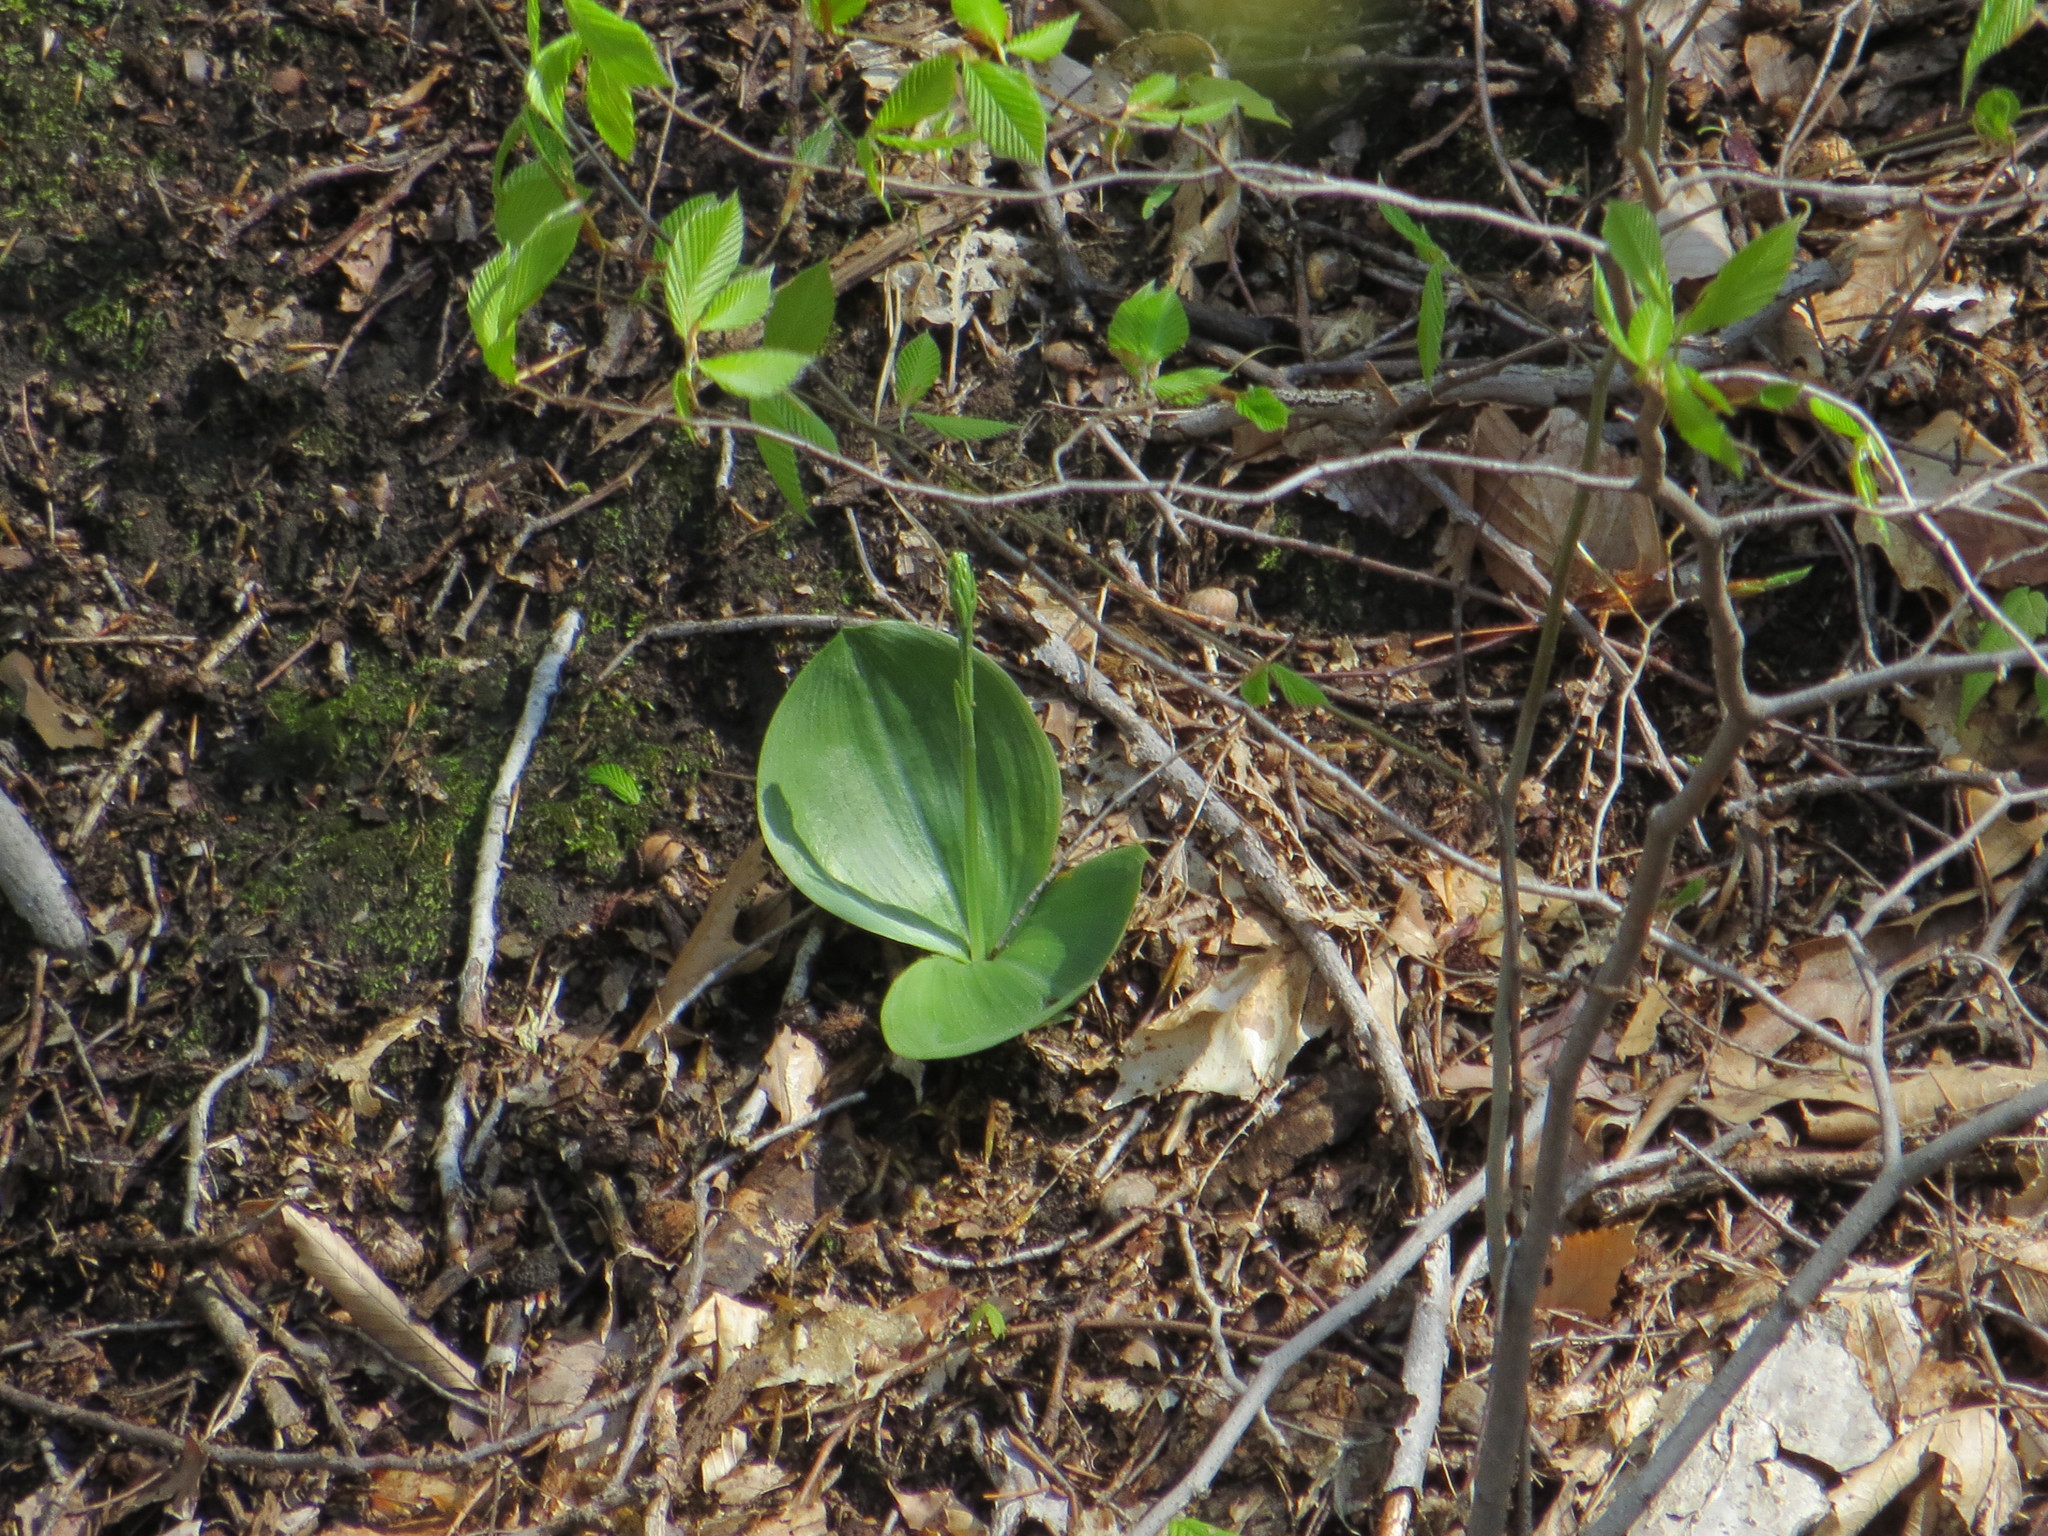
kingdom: Plantae
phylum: Tracheophyta
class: Liliopsida
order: Asparagales
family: Orchidaceae
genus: Platanthera
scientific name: Platanthera orbiculata
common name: Large round-leaved orchid
